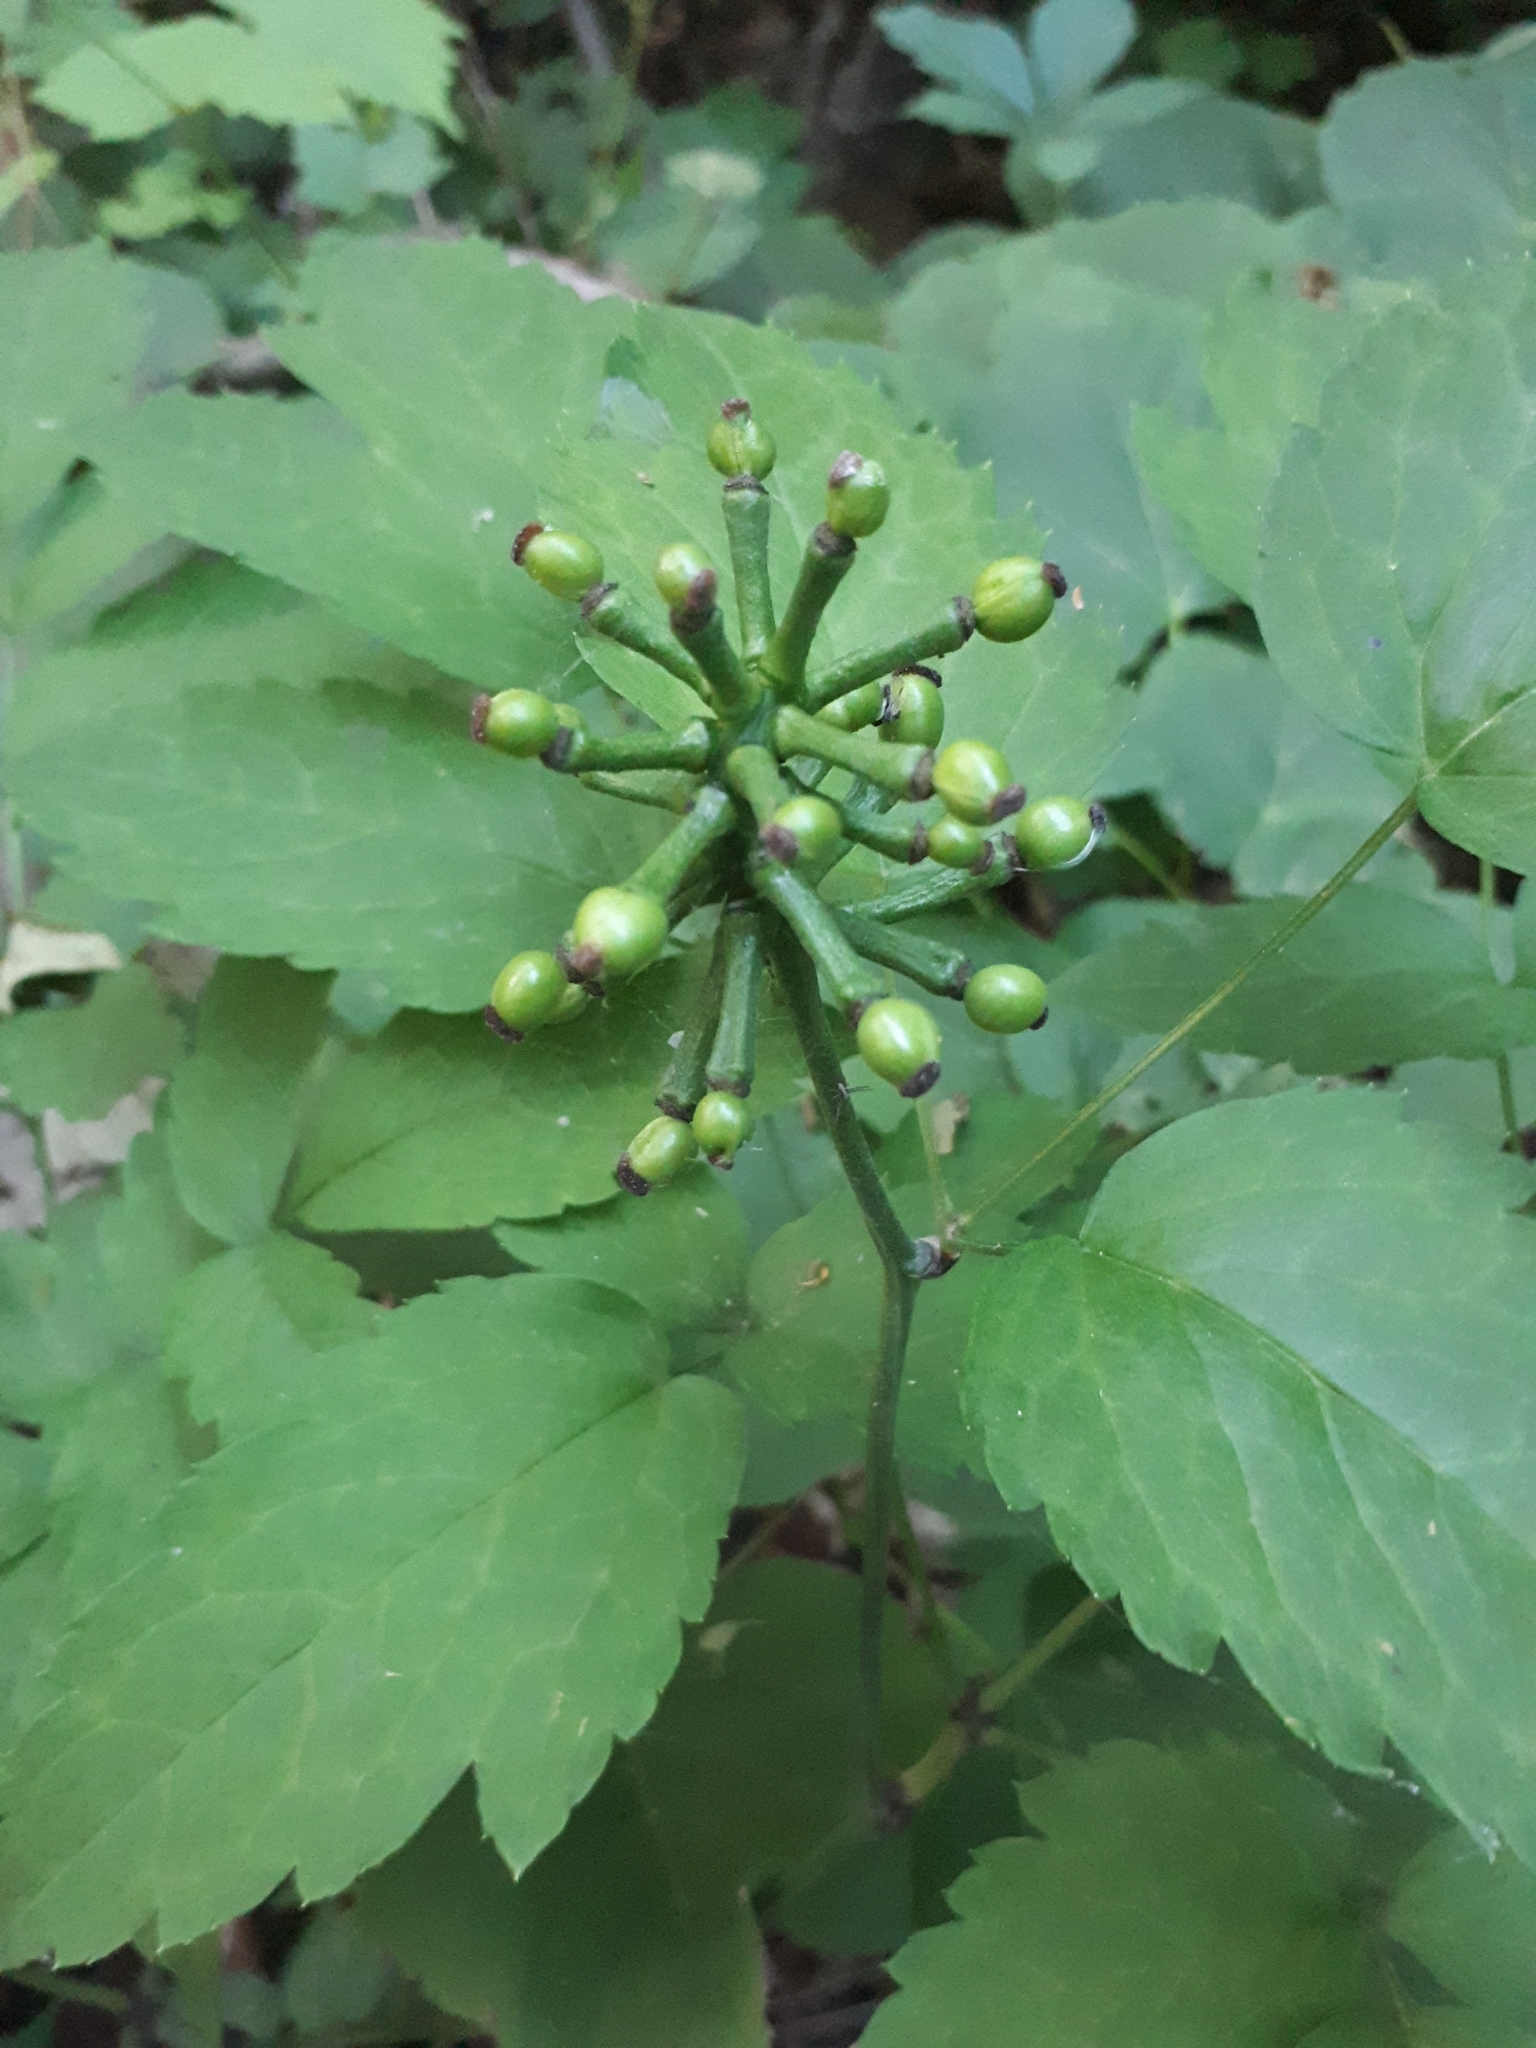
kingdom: Plantae
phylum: Tracheophyta
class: Magnoliopsida
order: Ranunculales
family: Ranunculaceae
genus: Actaea
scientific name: Actaea pachypoda
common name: Doll's-eyes
